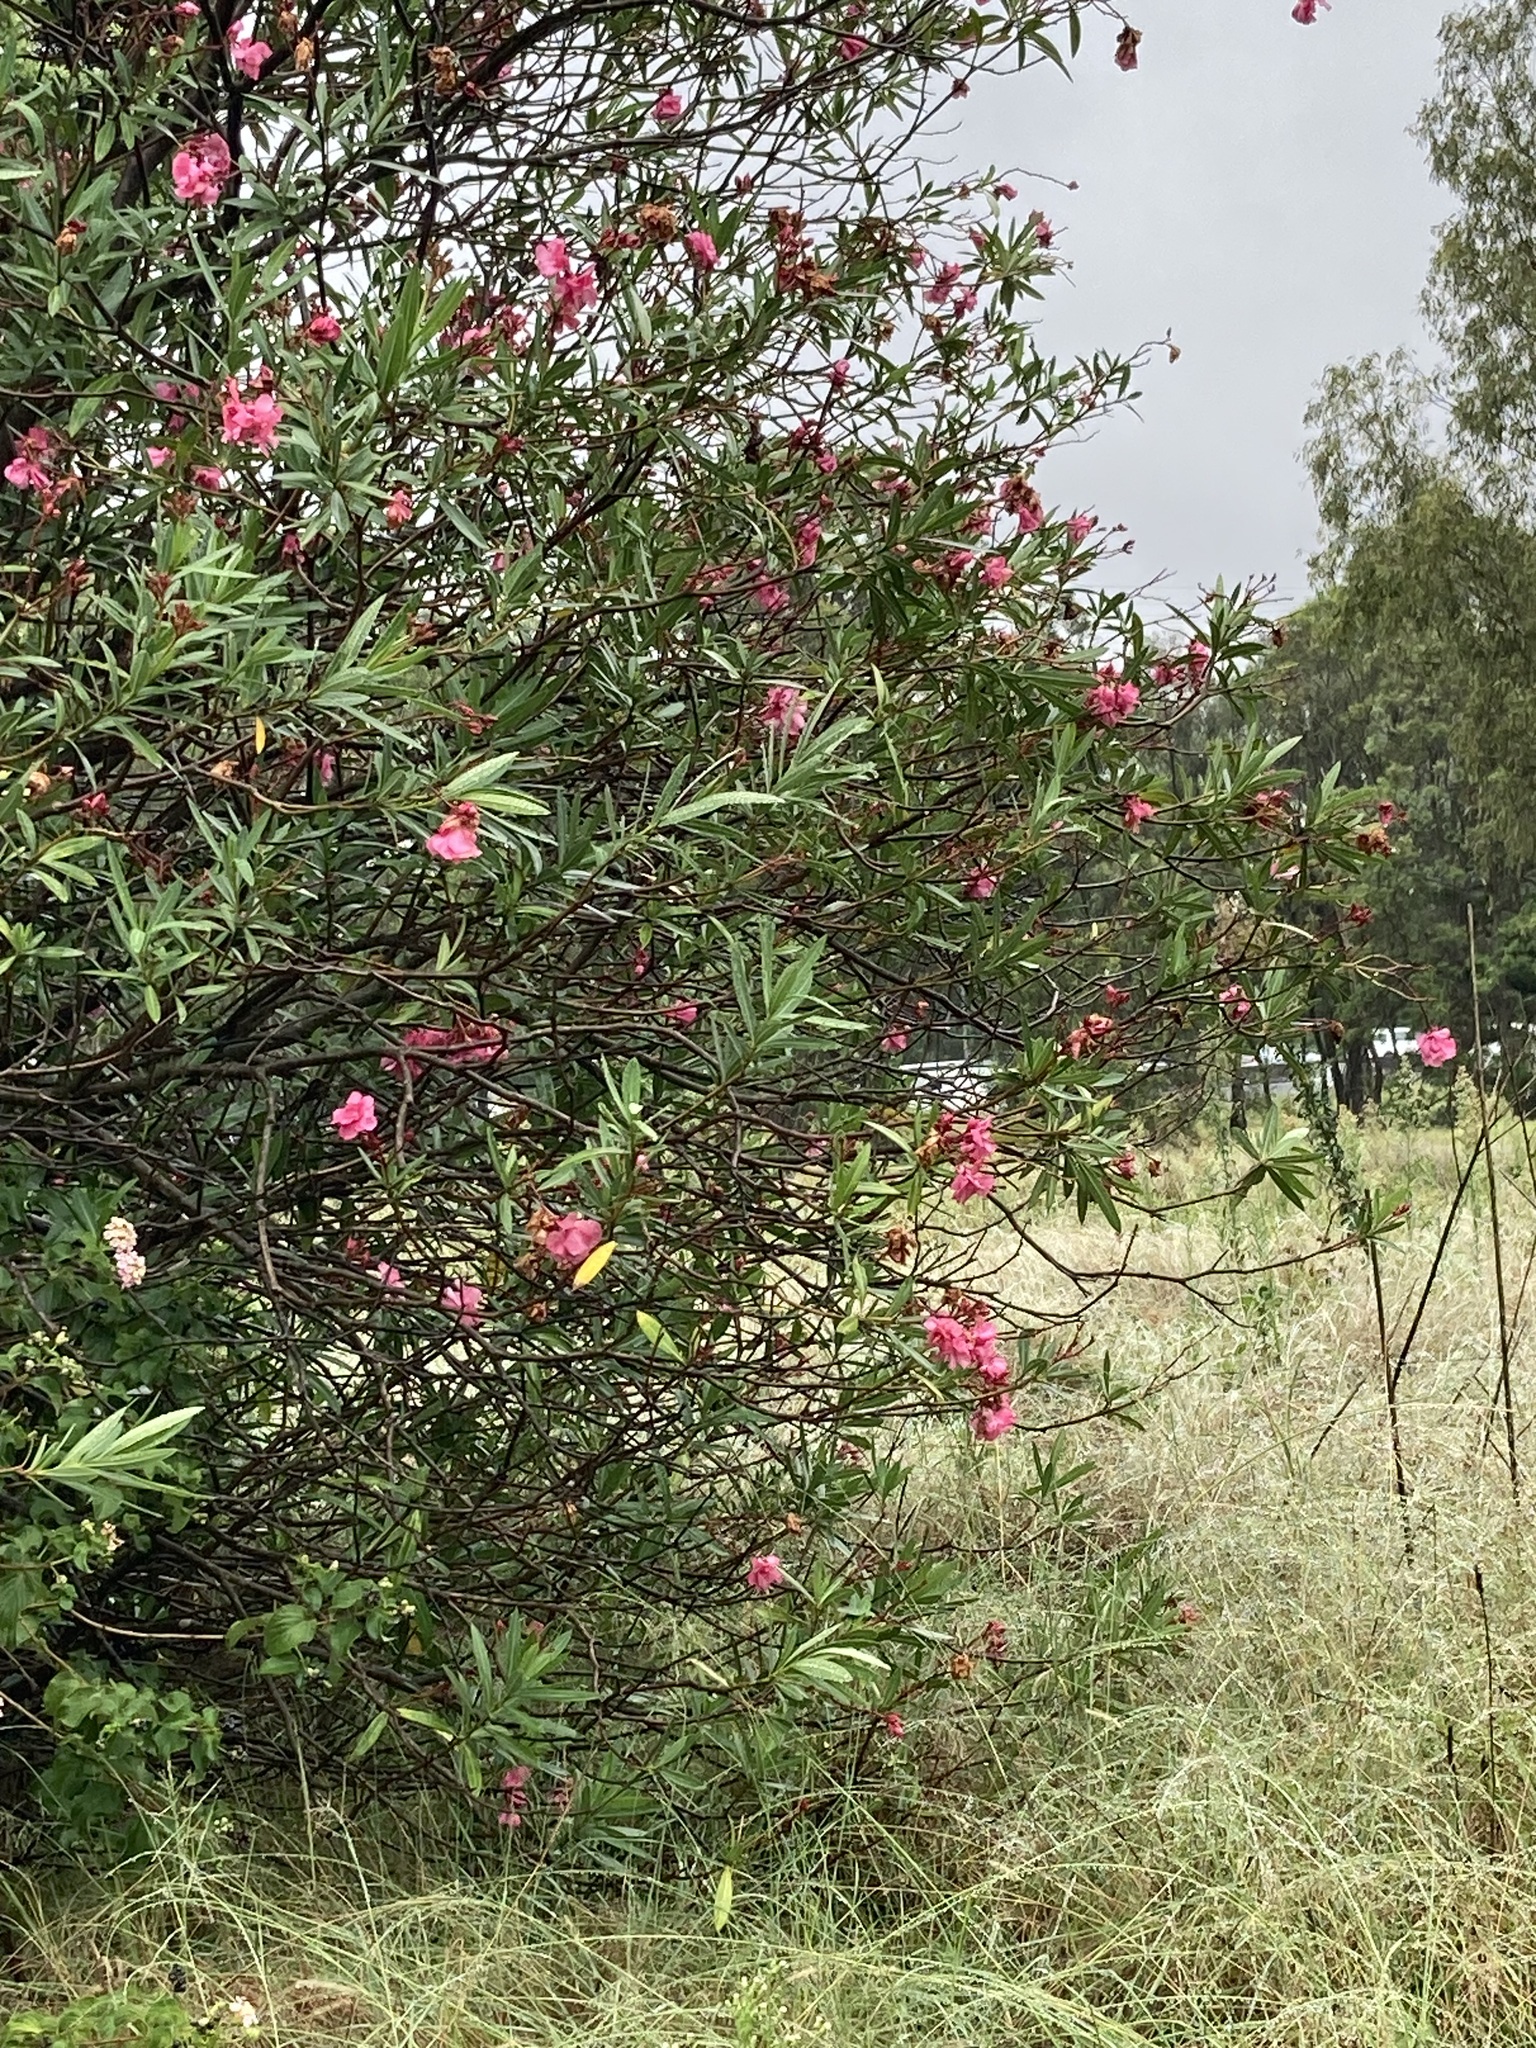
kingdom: Plantae
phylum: Tracheophyta
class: Magnoliopsida
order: Gentianales
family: Apocynaceae
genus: Nerium
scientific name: Nerium oleander
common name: Oleander
